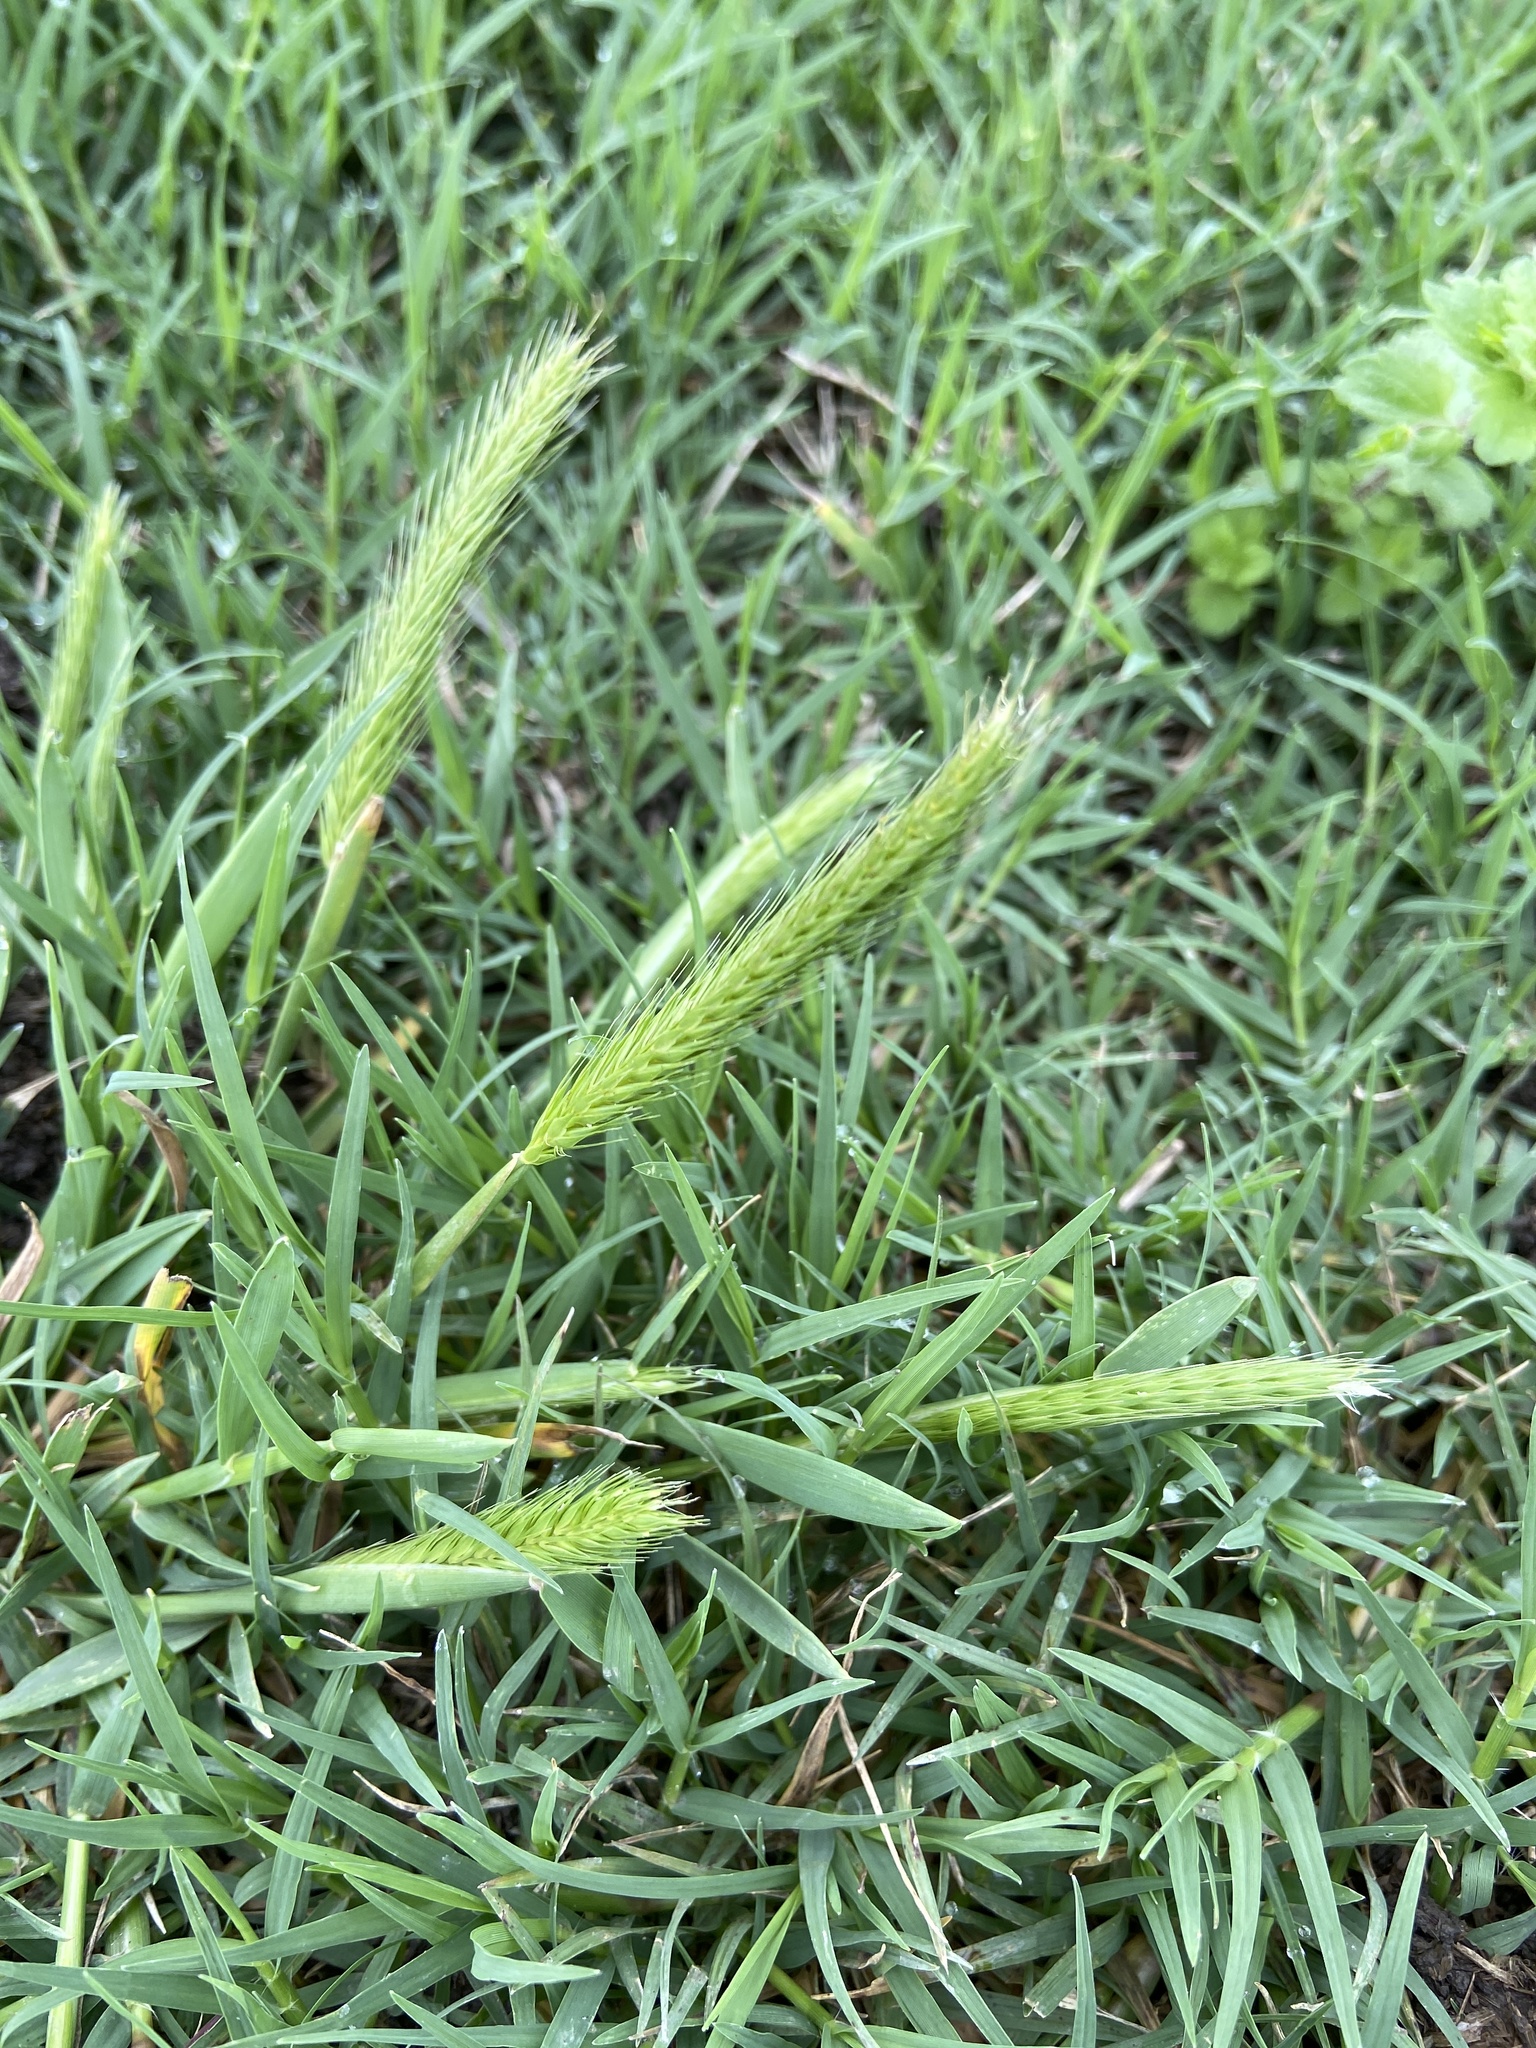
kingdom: Plantae
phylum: Tracheophyta
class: Liliopsida
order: Poales
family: Poaceae
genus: Hordeum
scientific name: Hordeum pusillum
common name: Little barley
